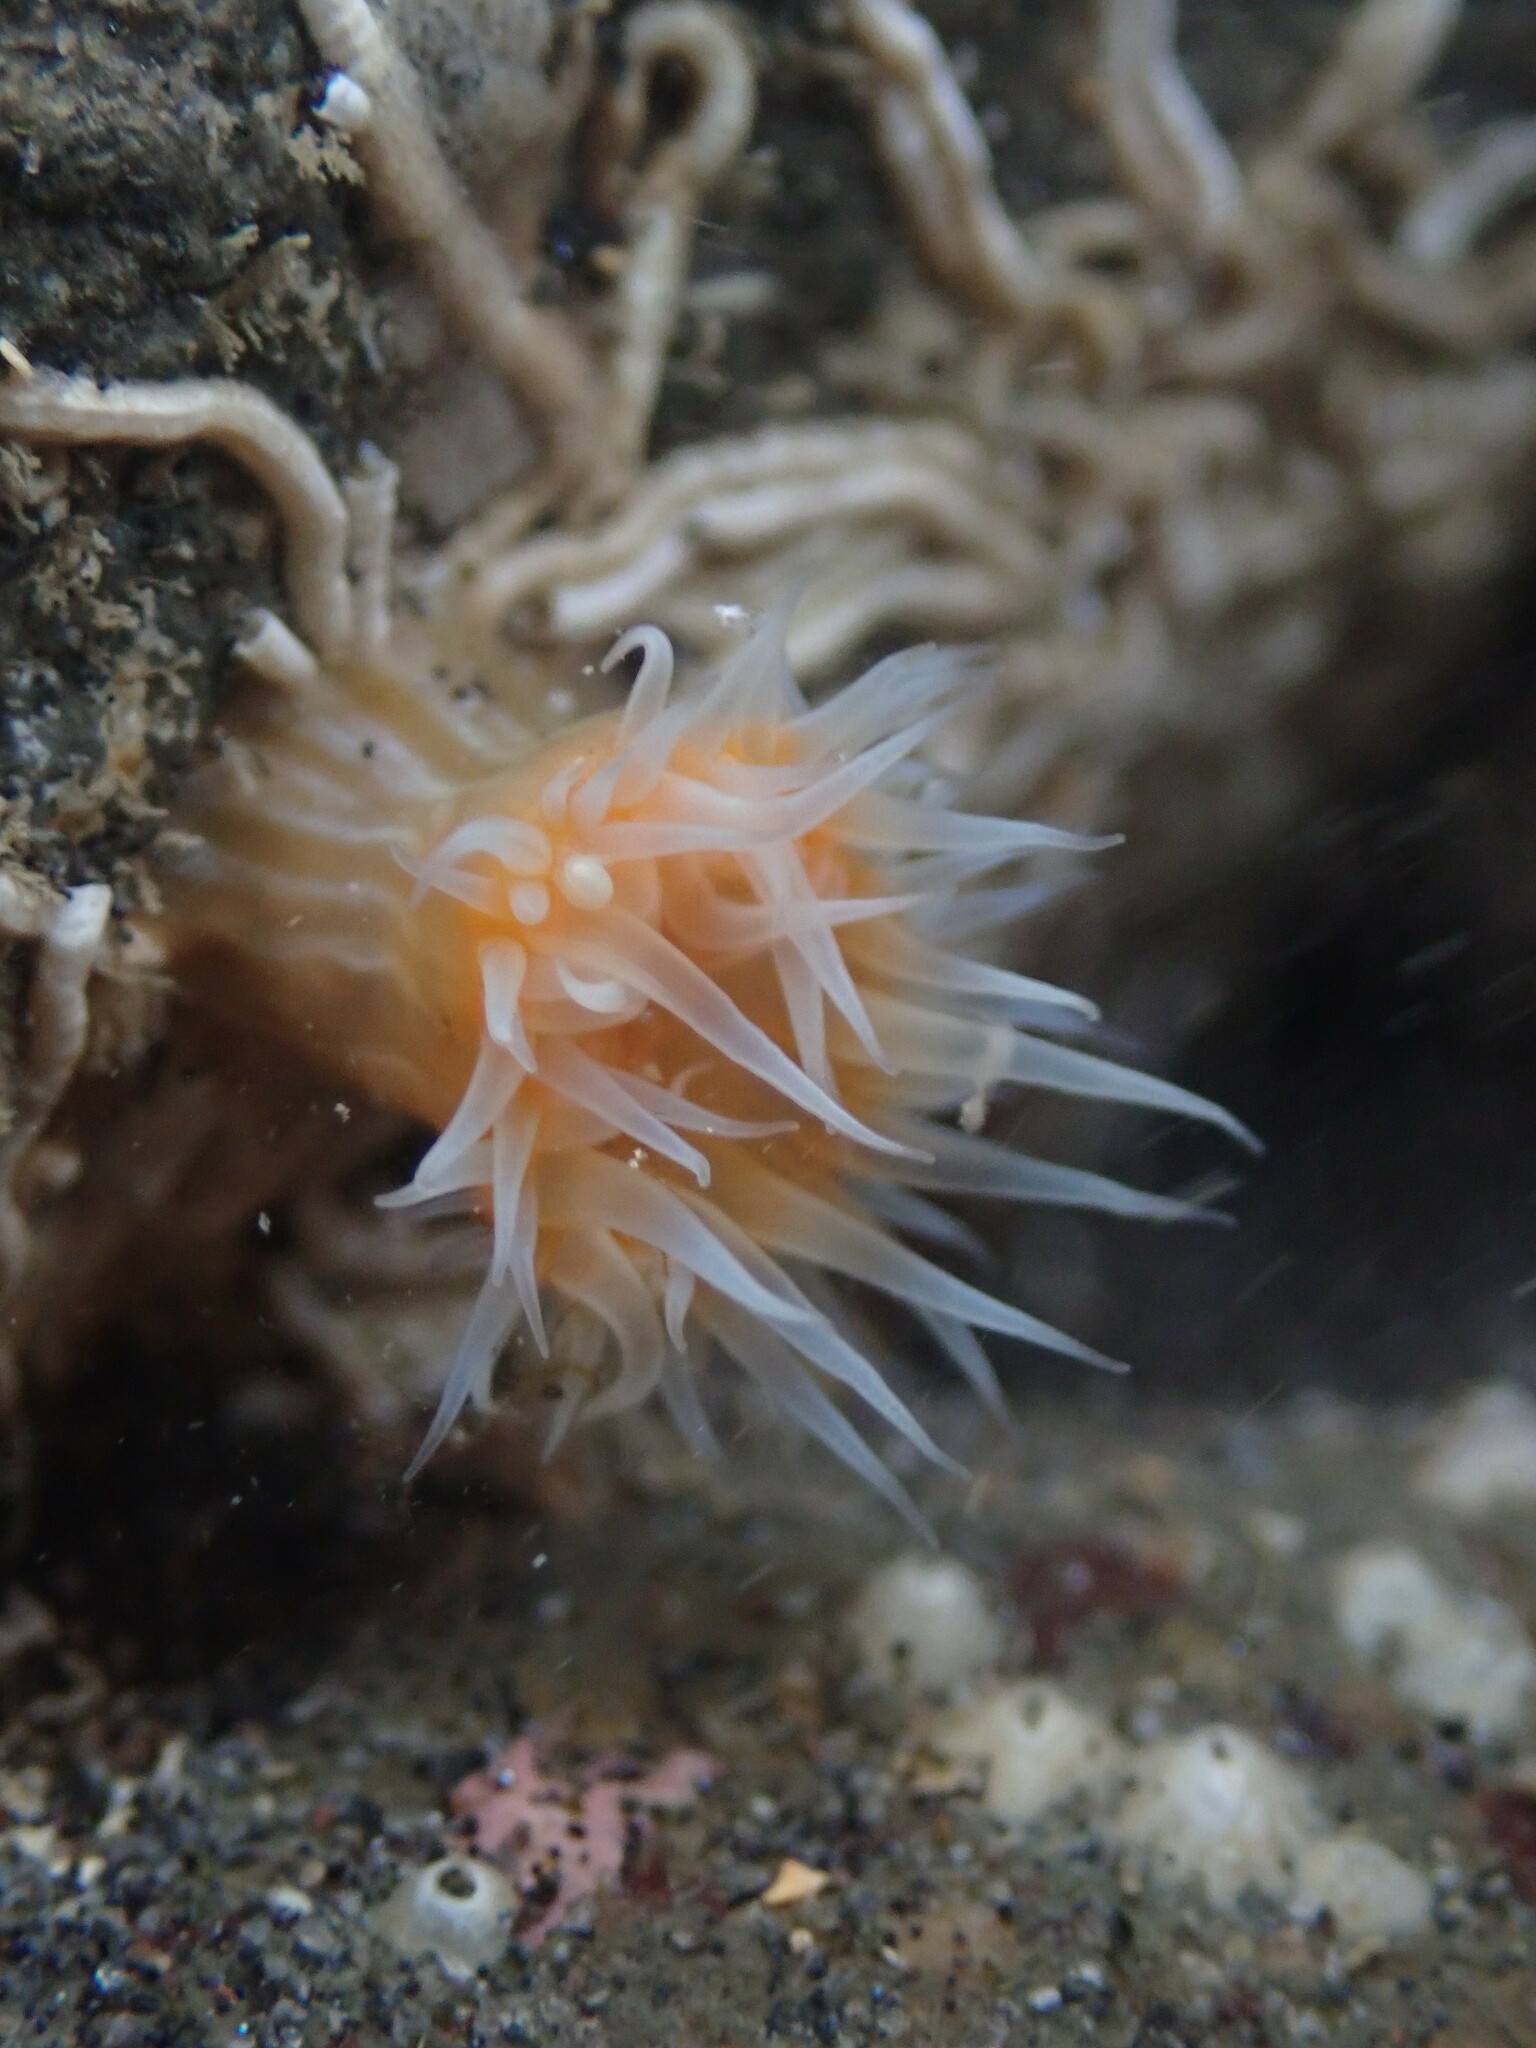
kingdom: Animalia
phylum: Cnidaria
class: Anthozoa
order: Actiniaria
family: Sagartiidae
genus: Anthothoe
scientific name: Anthothoe albocincta
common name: Orange striped anemone
